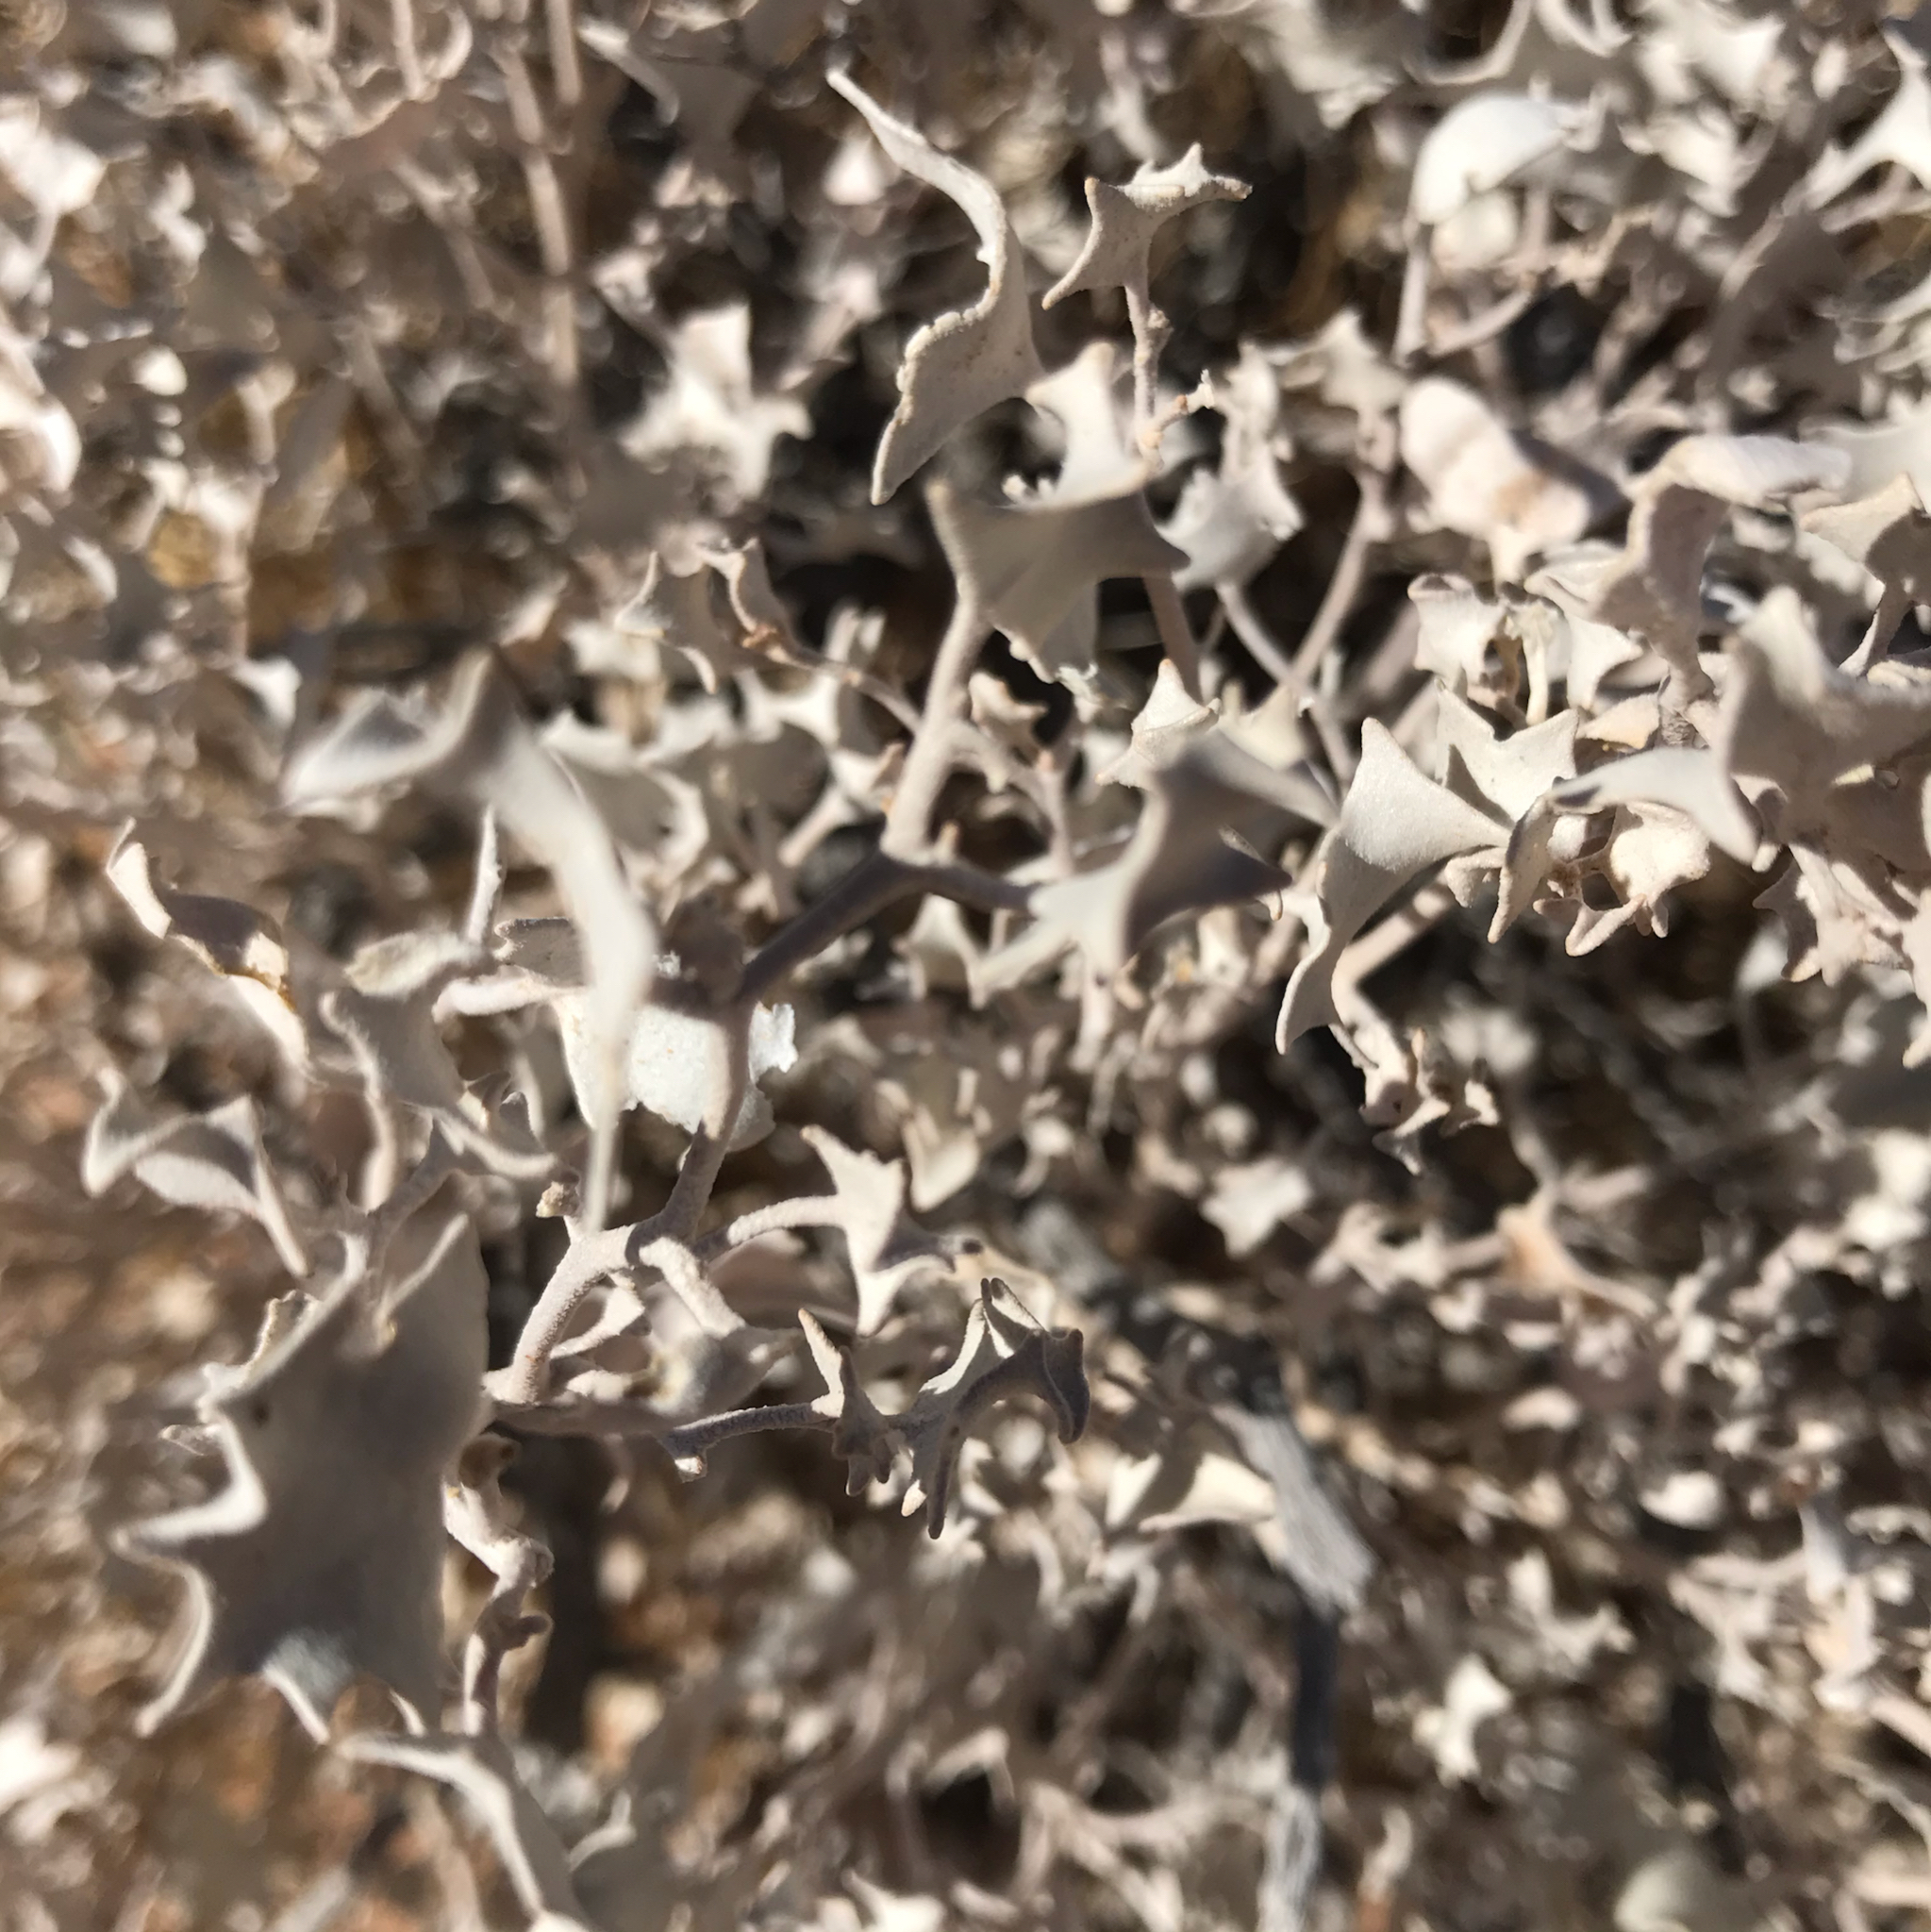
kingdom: Plantae
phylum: Tracheophyta
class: Magnoliopsida
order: Caryophyllales
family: Amaranthaceae
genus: Atriplex
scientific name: Atriplex hymenelytra
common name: Desert-holly
